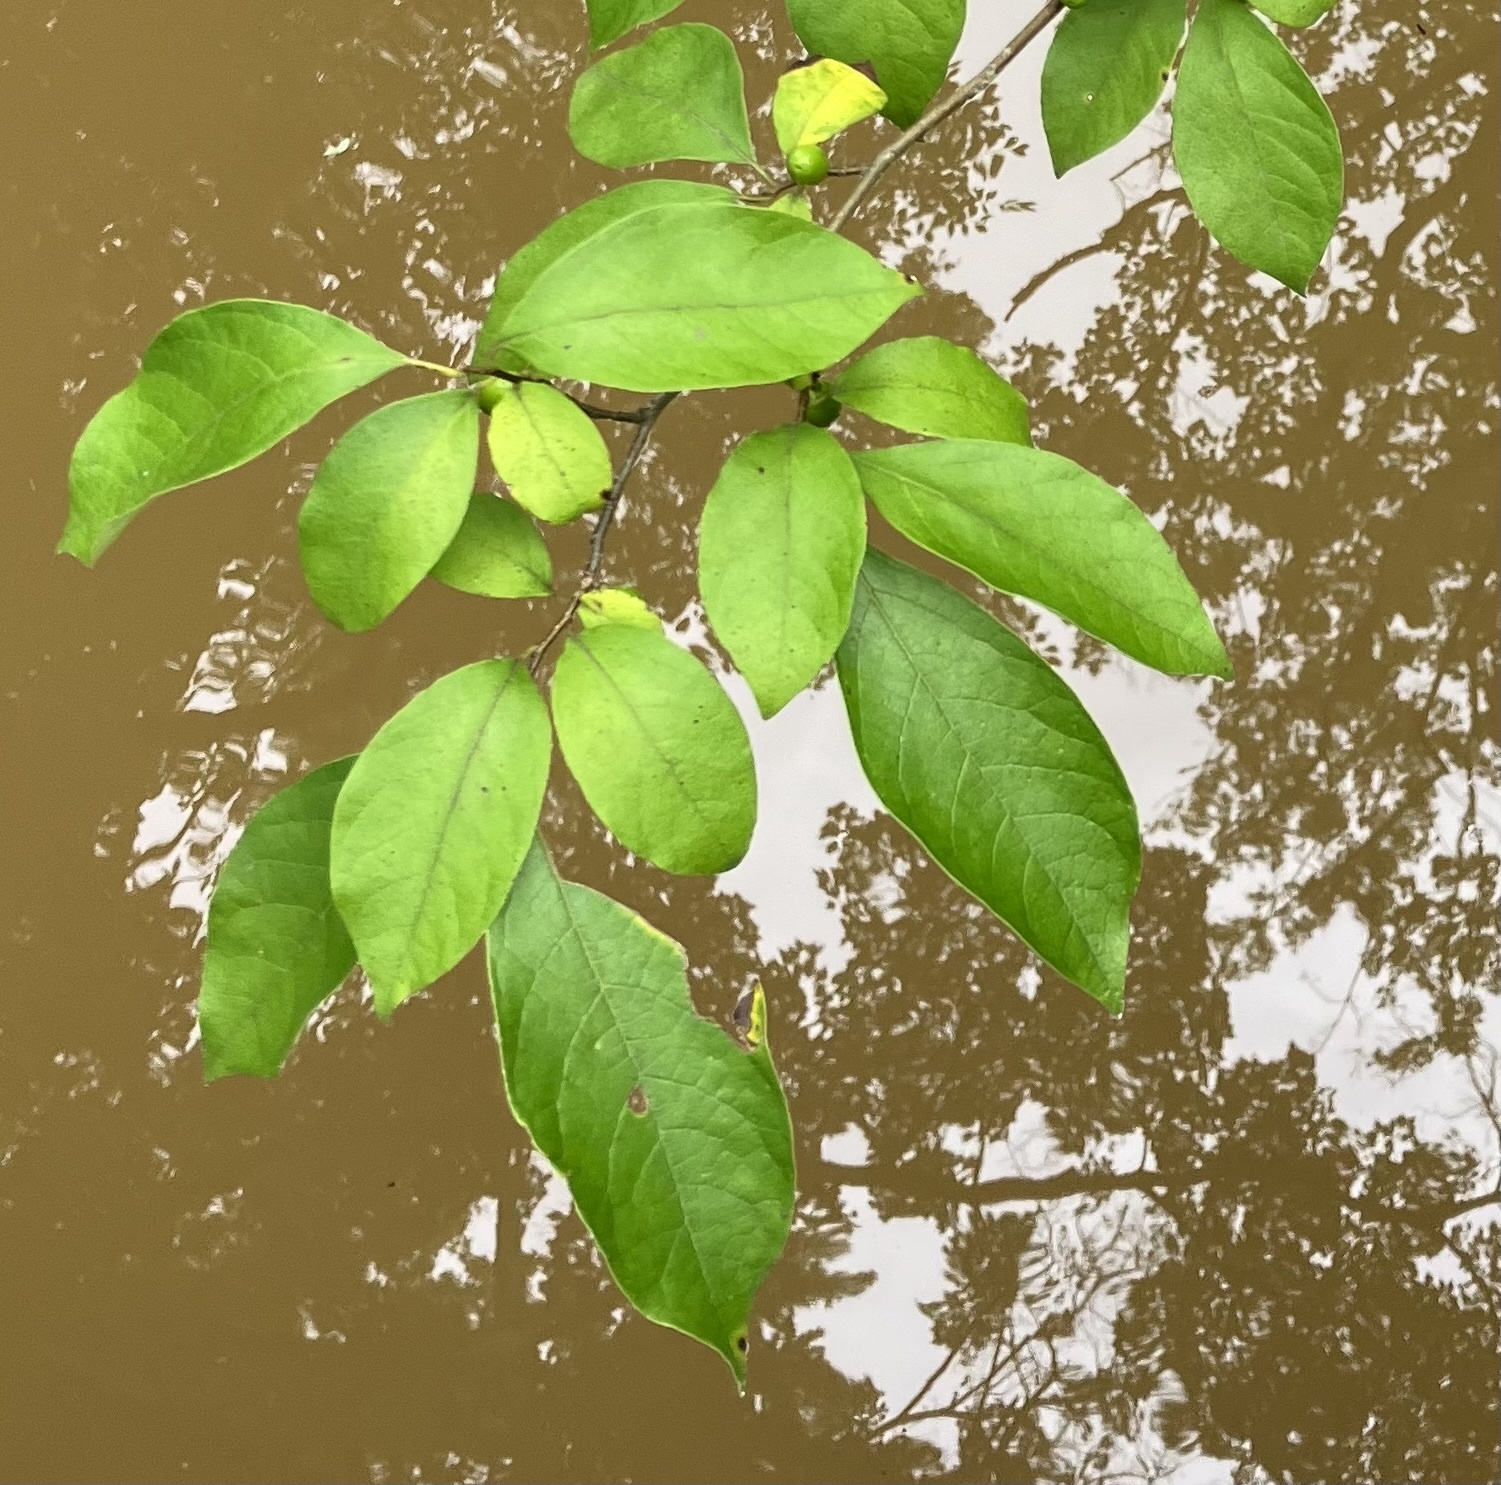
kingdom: Plantae
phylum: Tracheophyta
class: Magnoliopsida
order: Laurales
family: Lauraceae
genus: Lindera
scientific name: Lindera benzoin
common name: Spicebush
